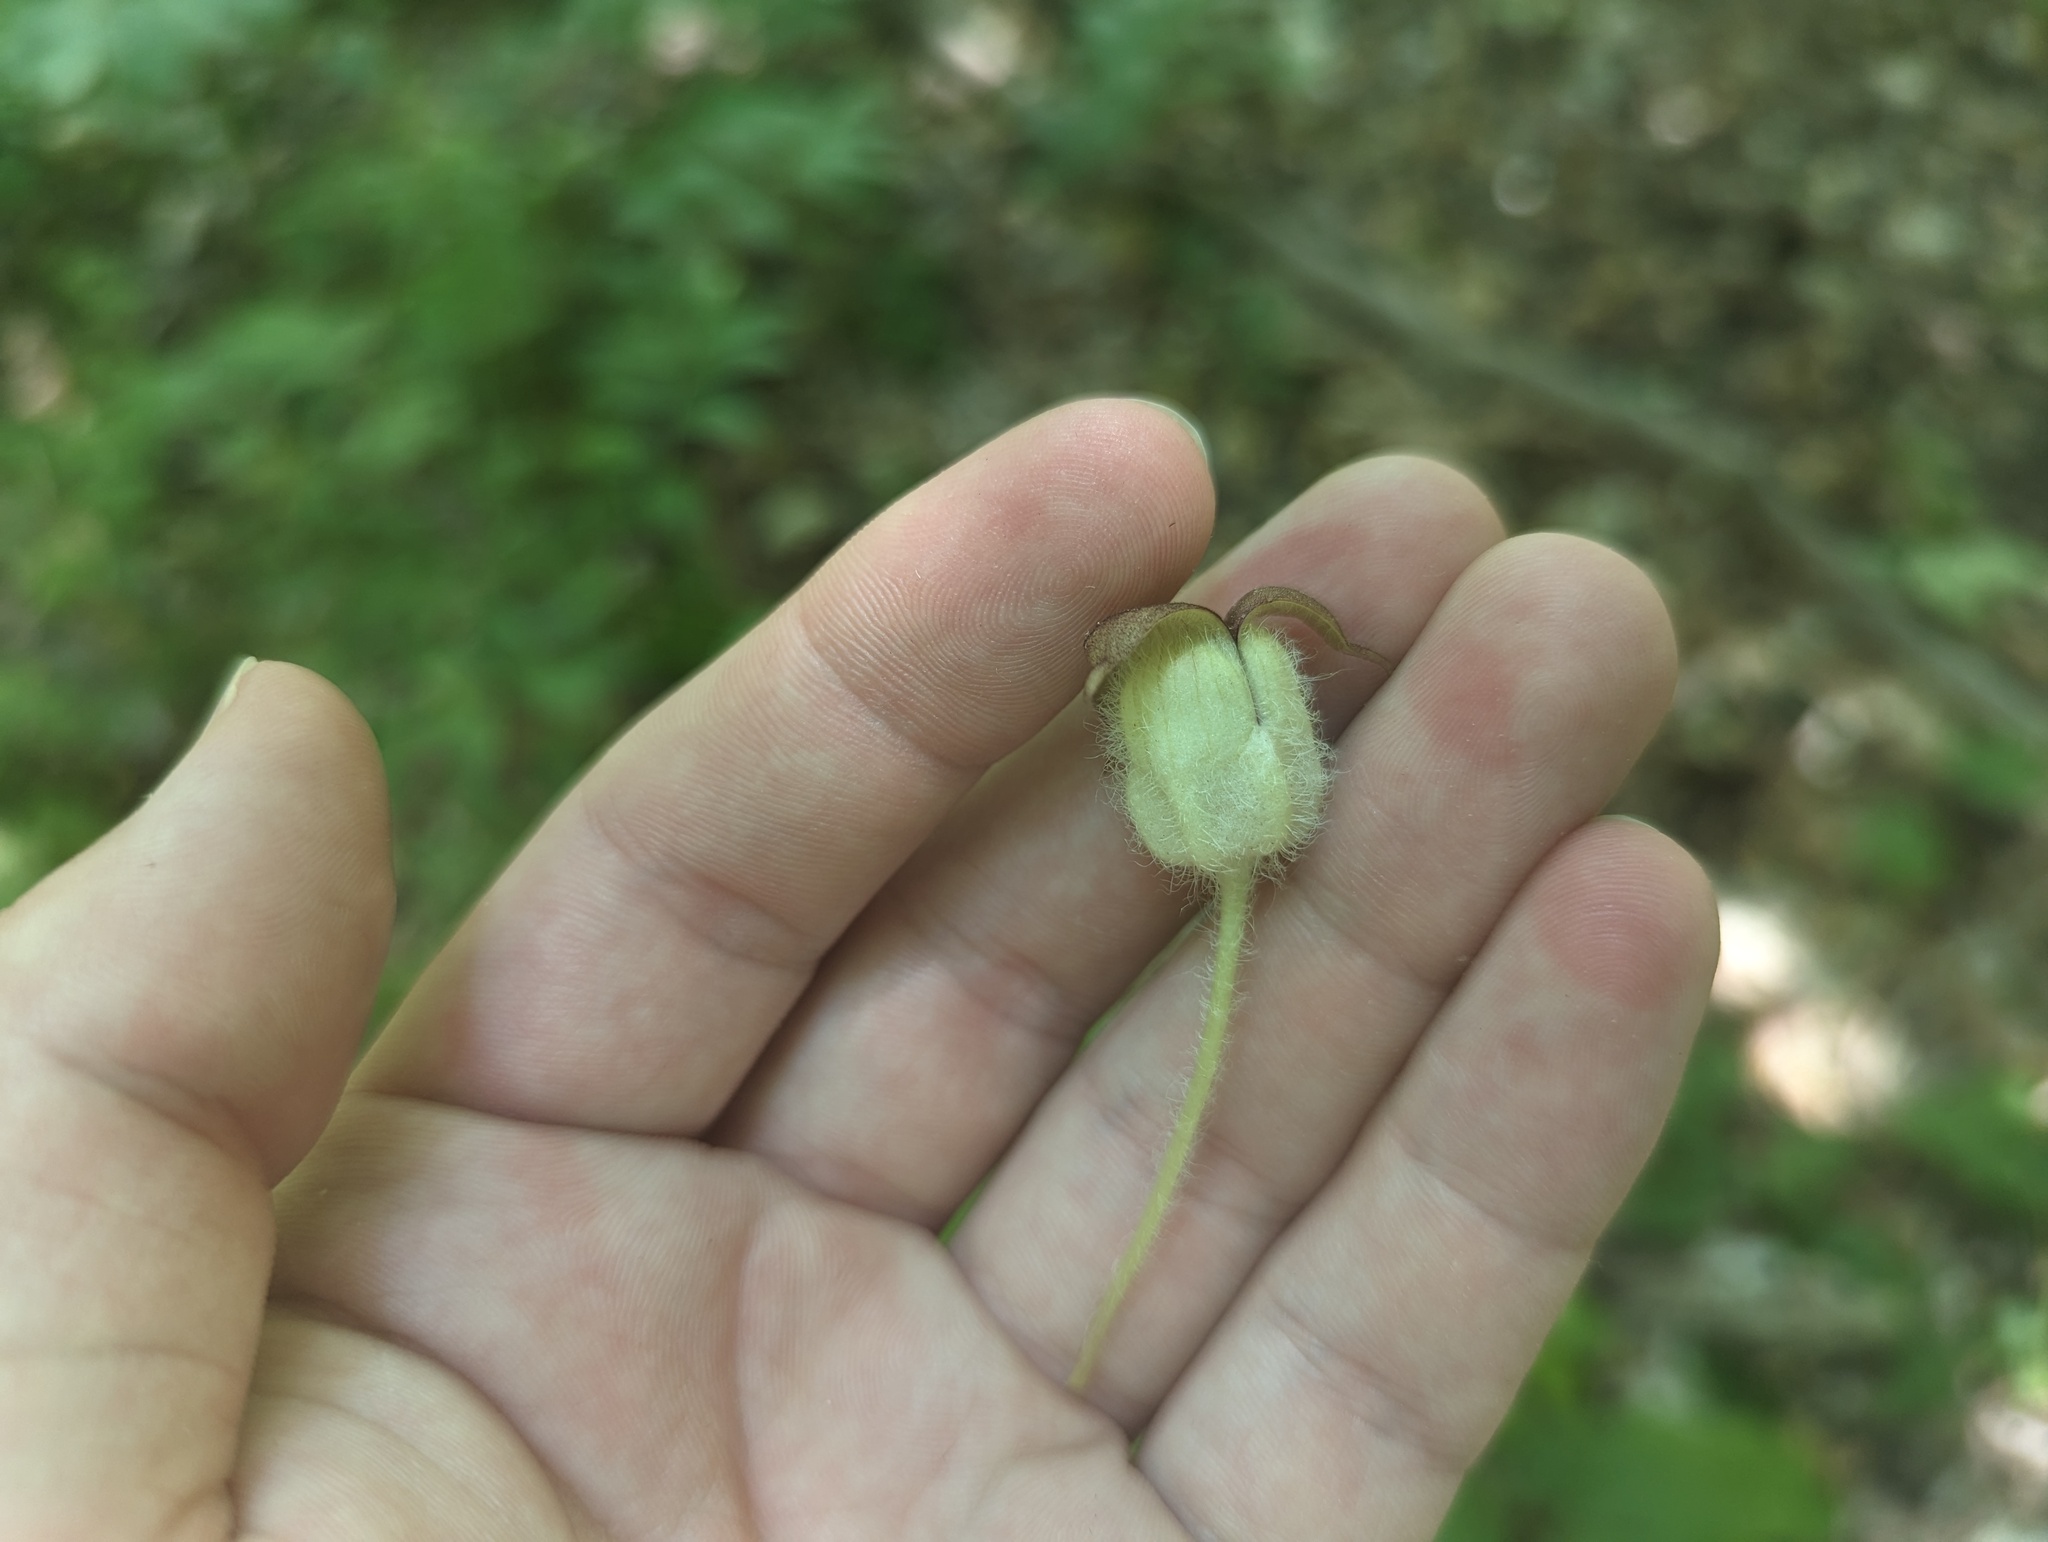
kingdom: Plantae
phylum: Tracheophyta
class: Magnoliopsida
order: Piperales
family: Aristolochiaceae
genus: Asarum
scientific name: Asarum canadense
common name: Wild ginger
